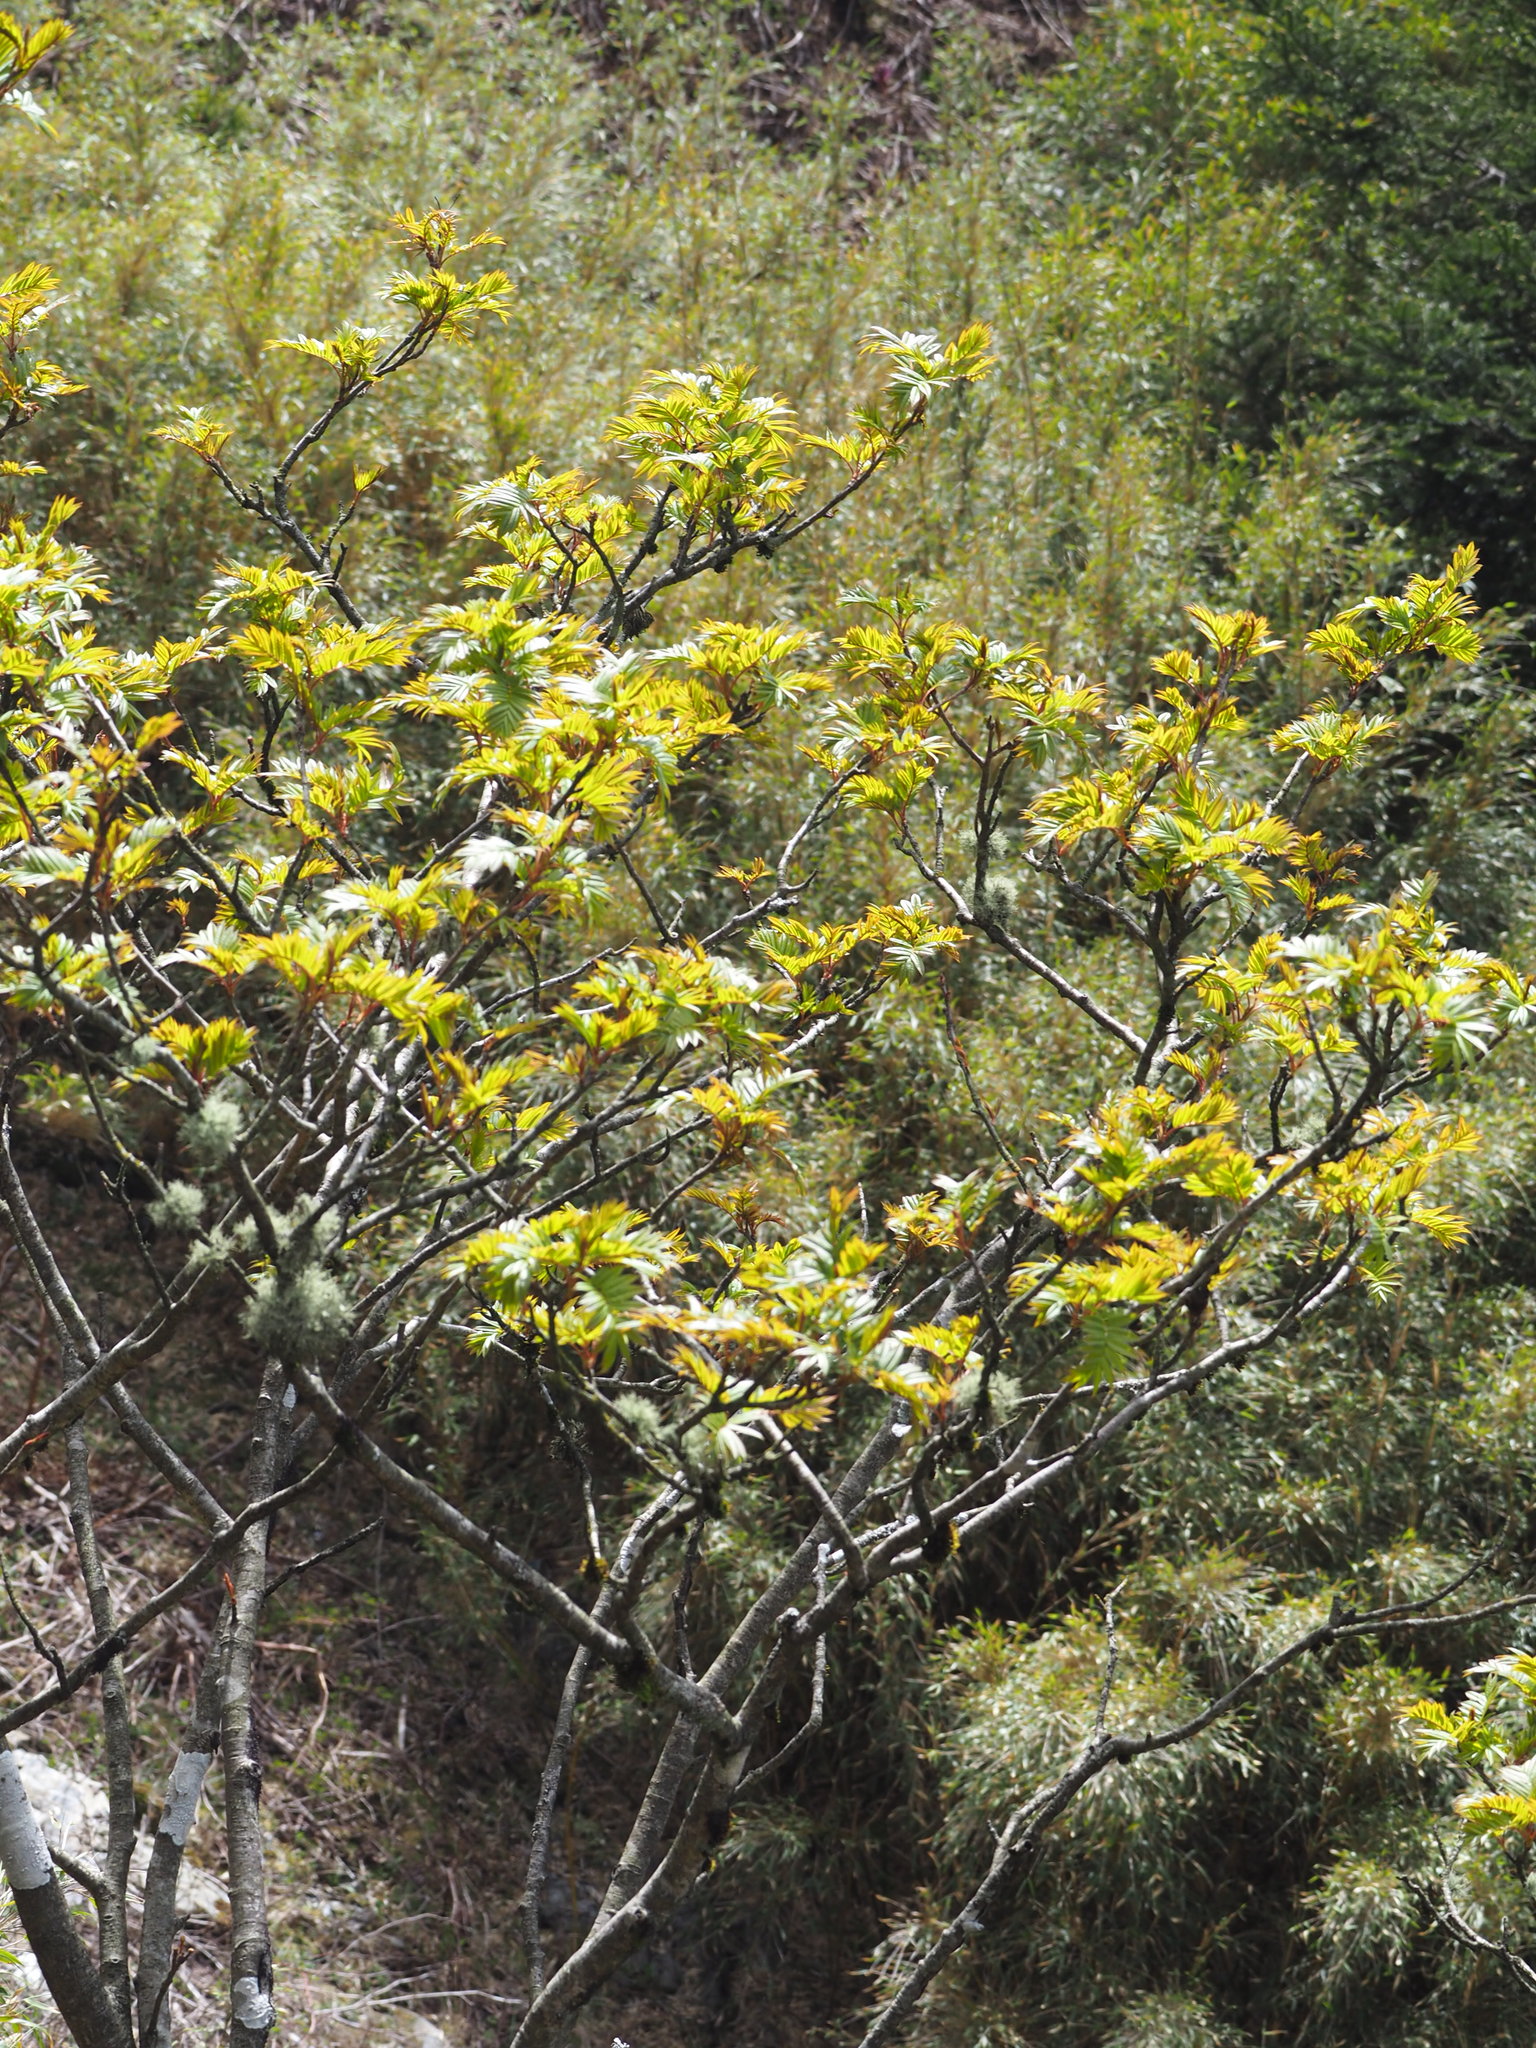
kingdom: Plantae
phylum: Tracheophyta
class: Magnoliopsida
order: Rosales
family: Rosaceae
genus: Sorbus
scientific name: Sorbus randaiensis
